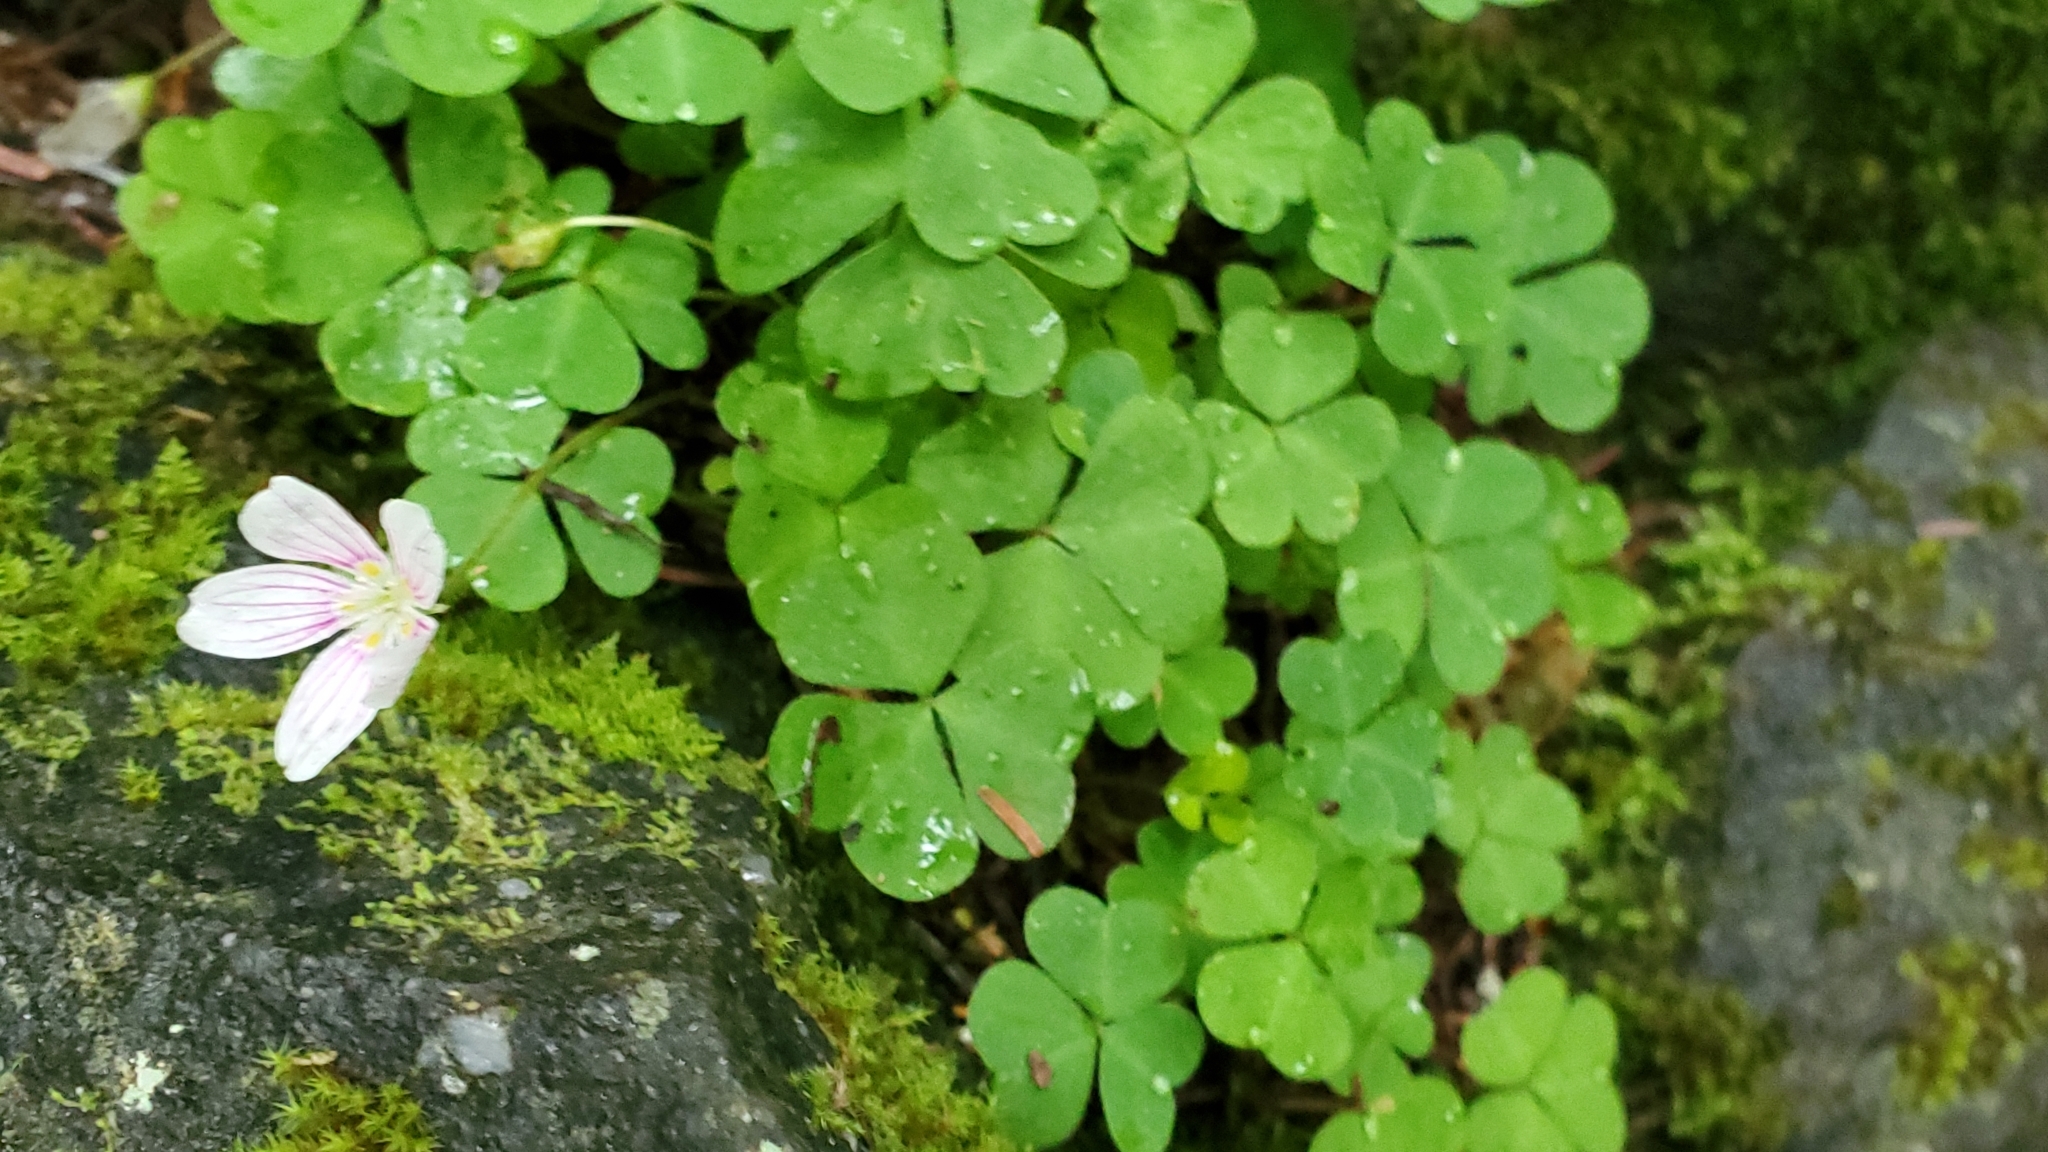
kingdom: Plantae
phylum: Tracheophyta
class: Magnoliopsida
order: Oxalidales
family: Oxalidaceae
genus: Oxalis
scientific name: Oxalis montana
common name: American wood-sorrel
